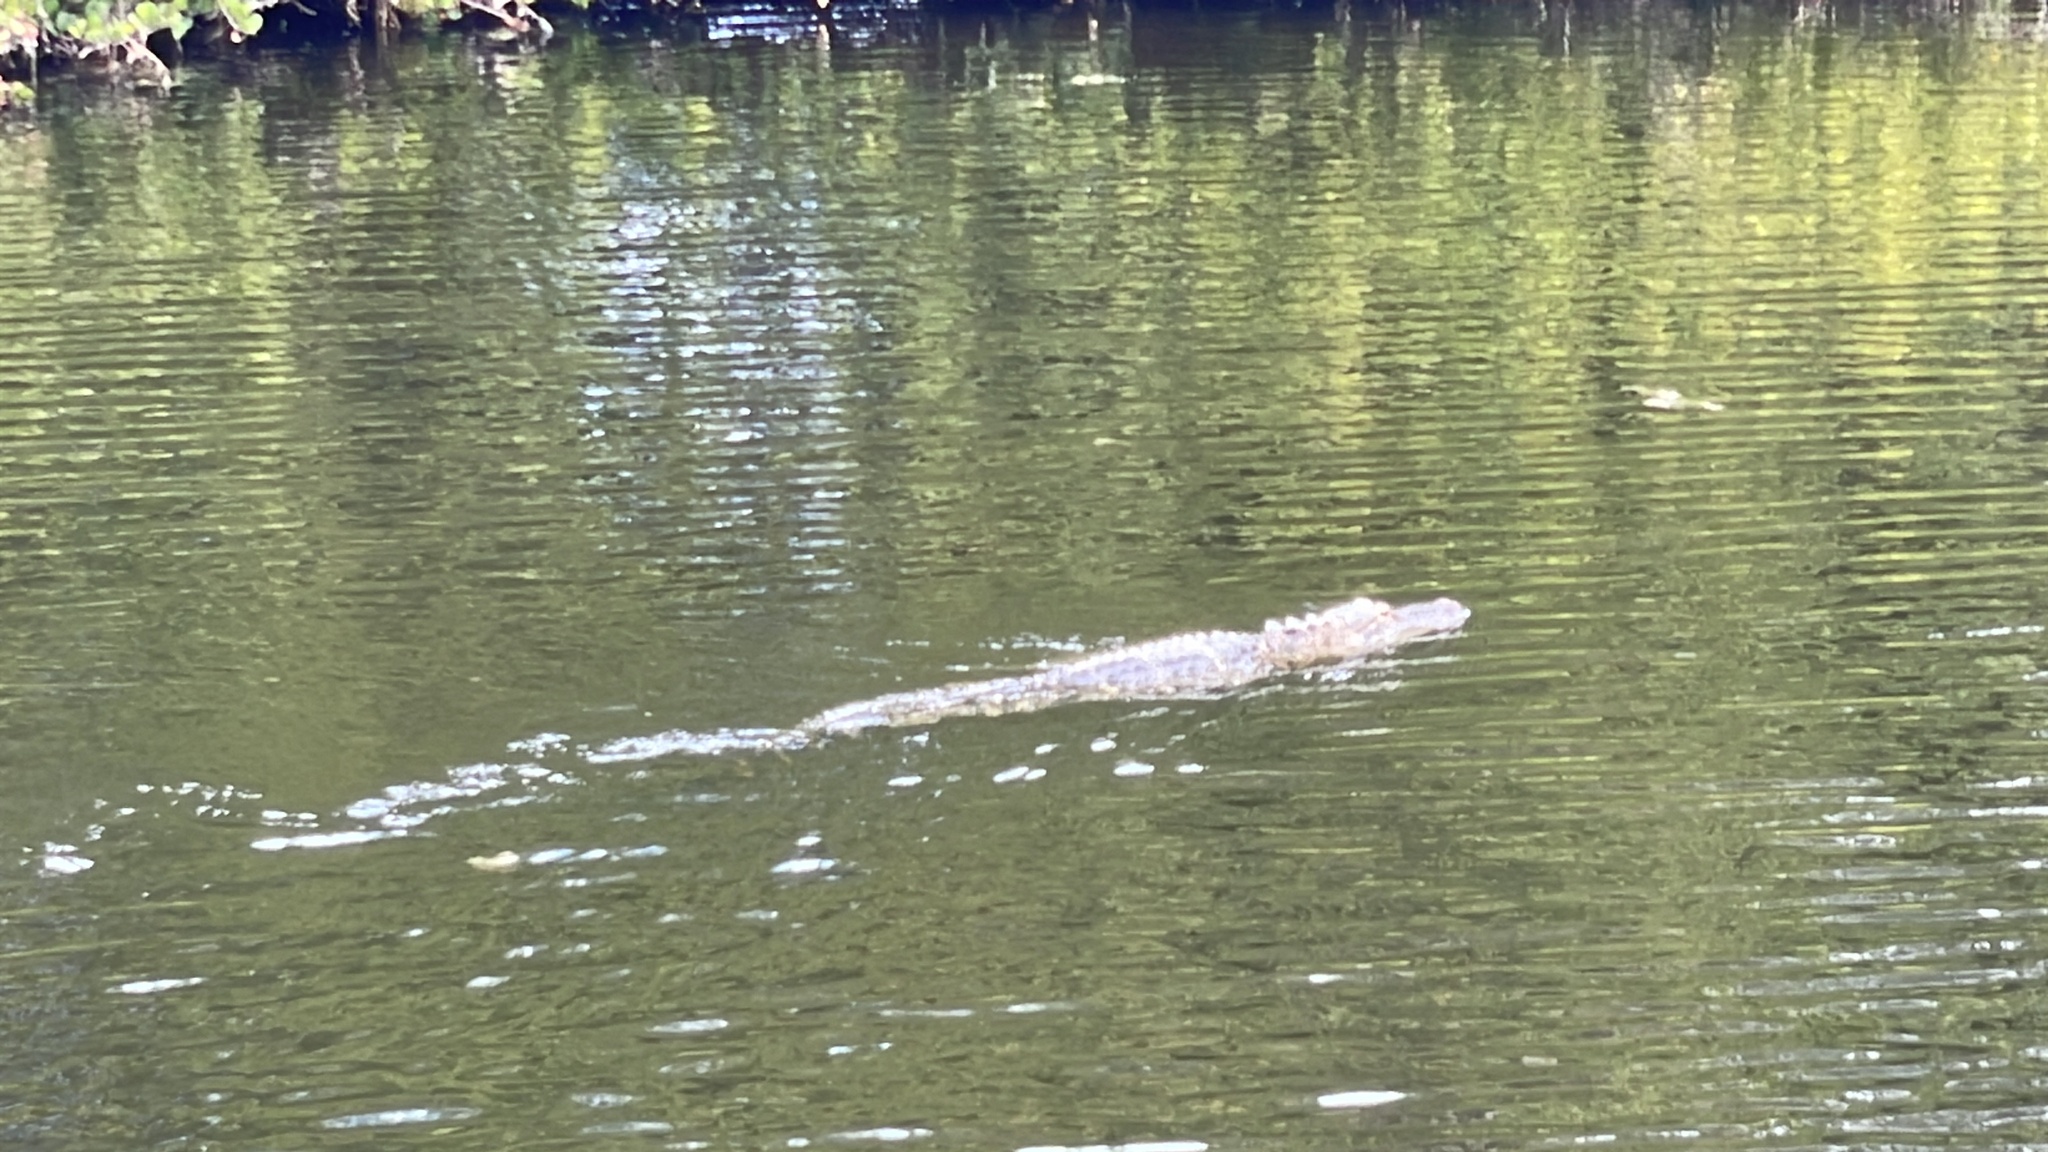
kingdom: Animalia
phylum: Chordata
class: Crocodylia
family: Alligatoridae
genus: Alligator
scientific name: Alligator mississippiensis
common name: American alligator
